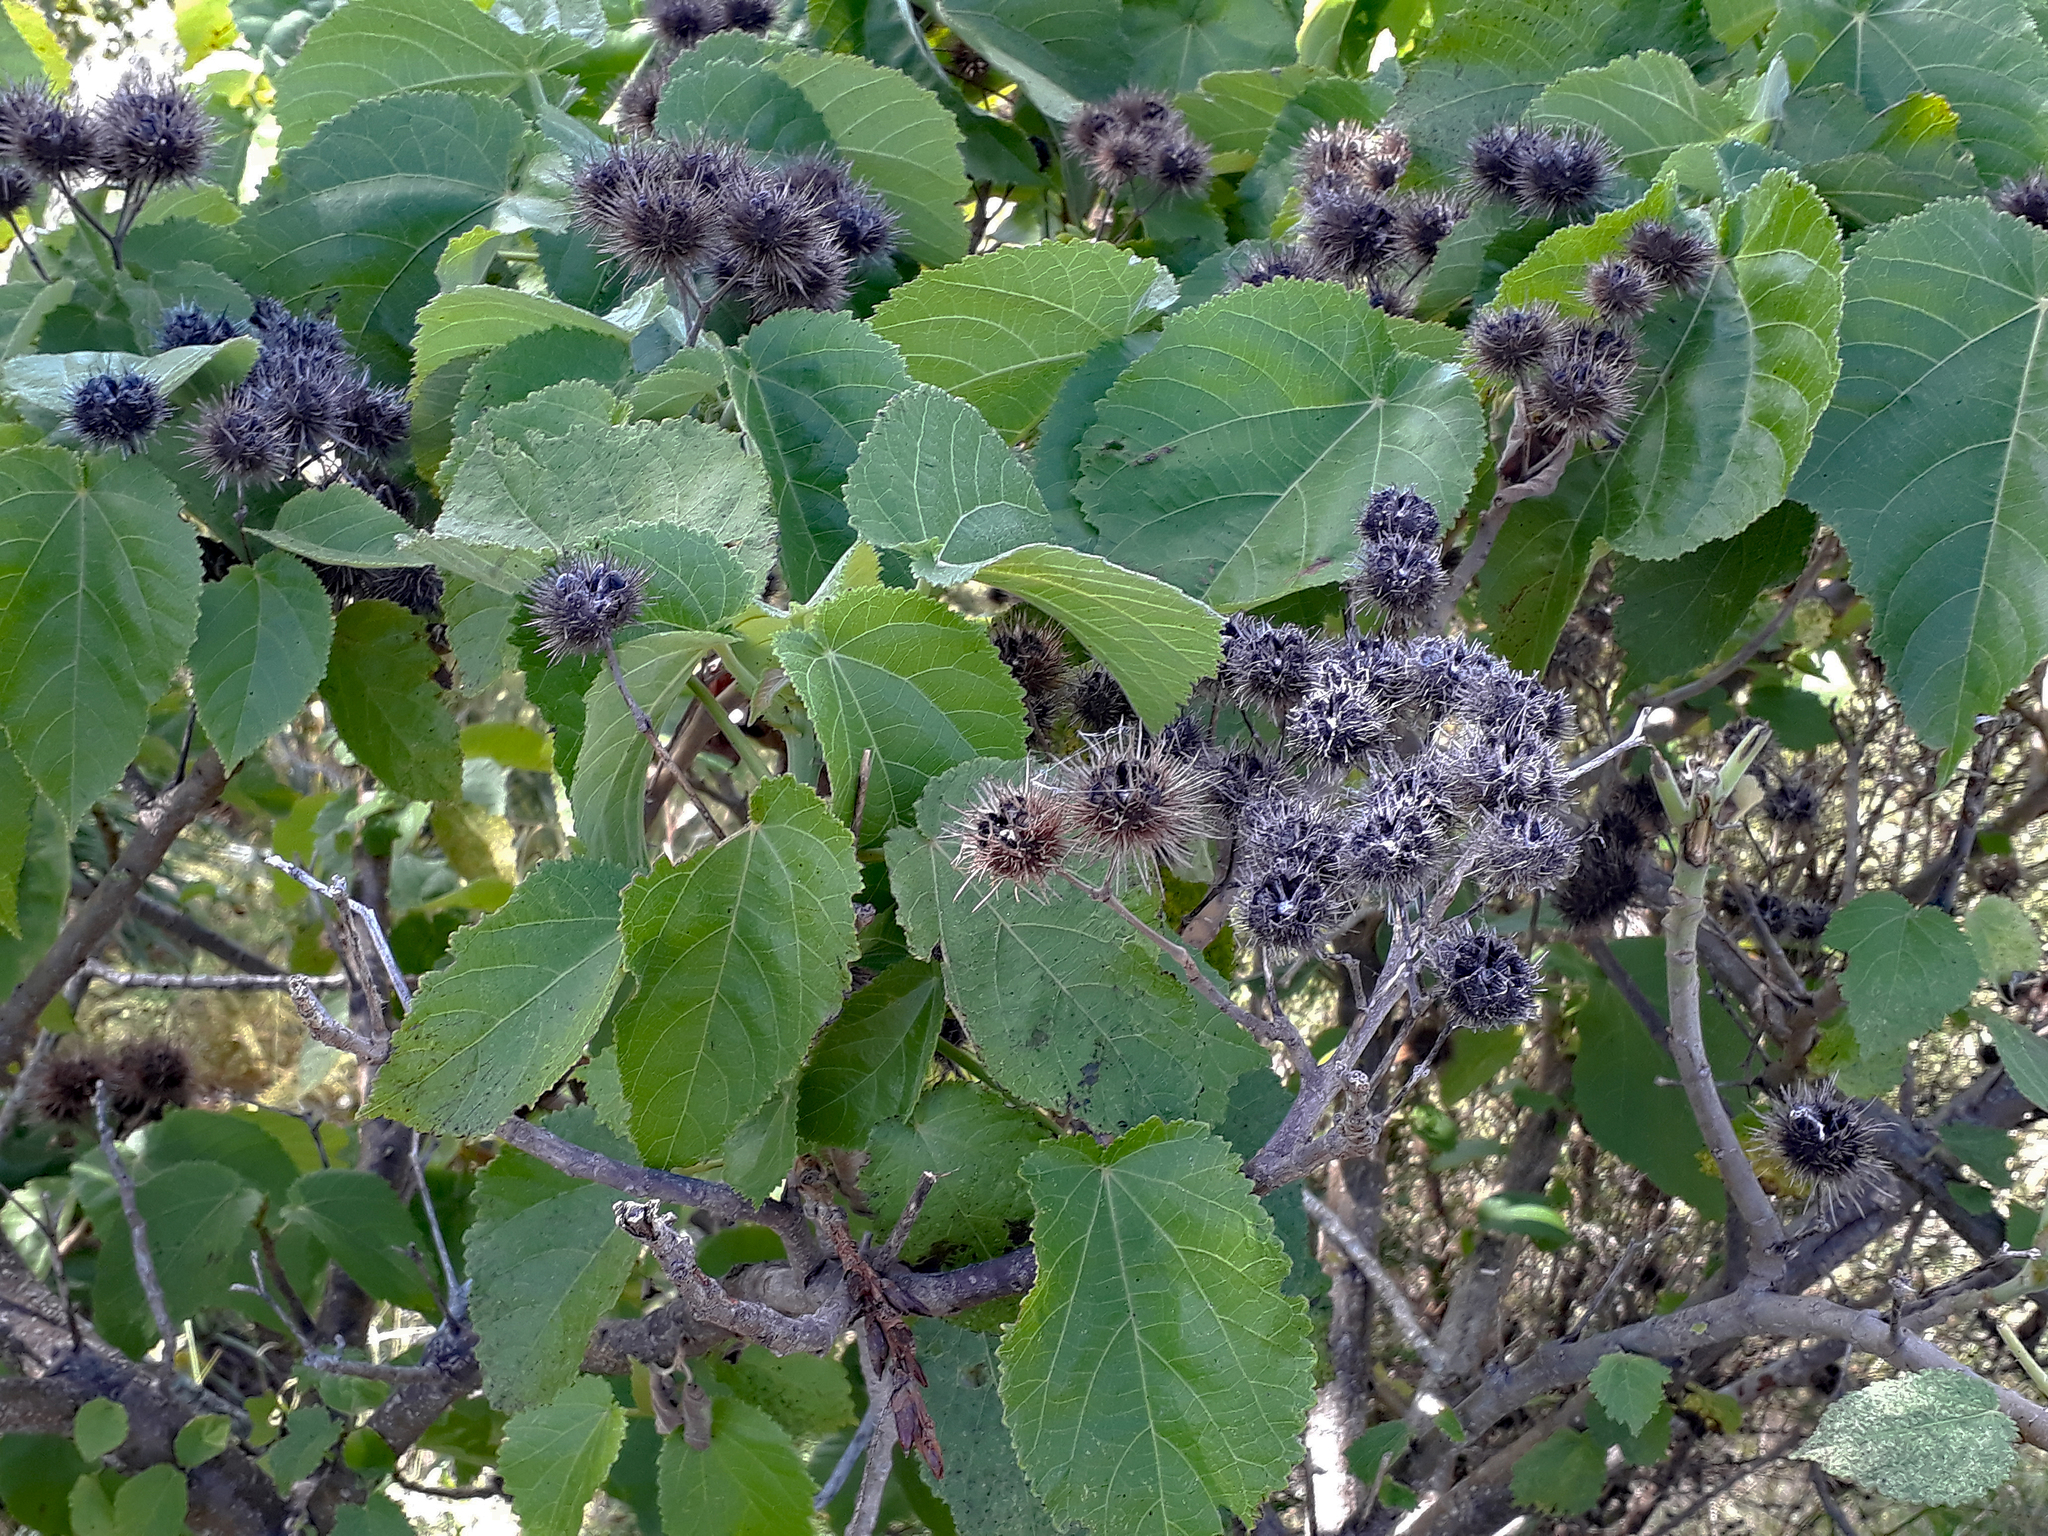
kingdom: Plantae
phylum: Tracheophyta
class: Magnoliopsida
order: Malvales
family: Malvaceae
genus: Entelea
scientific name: Entelea arborescens
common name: New zealand-mulberry
